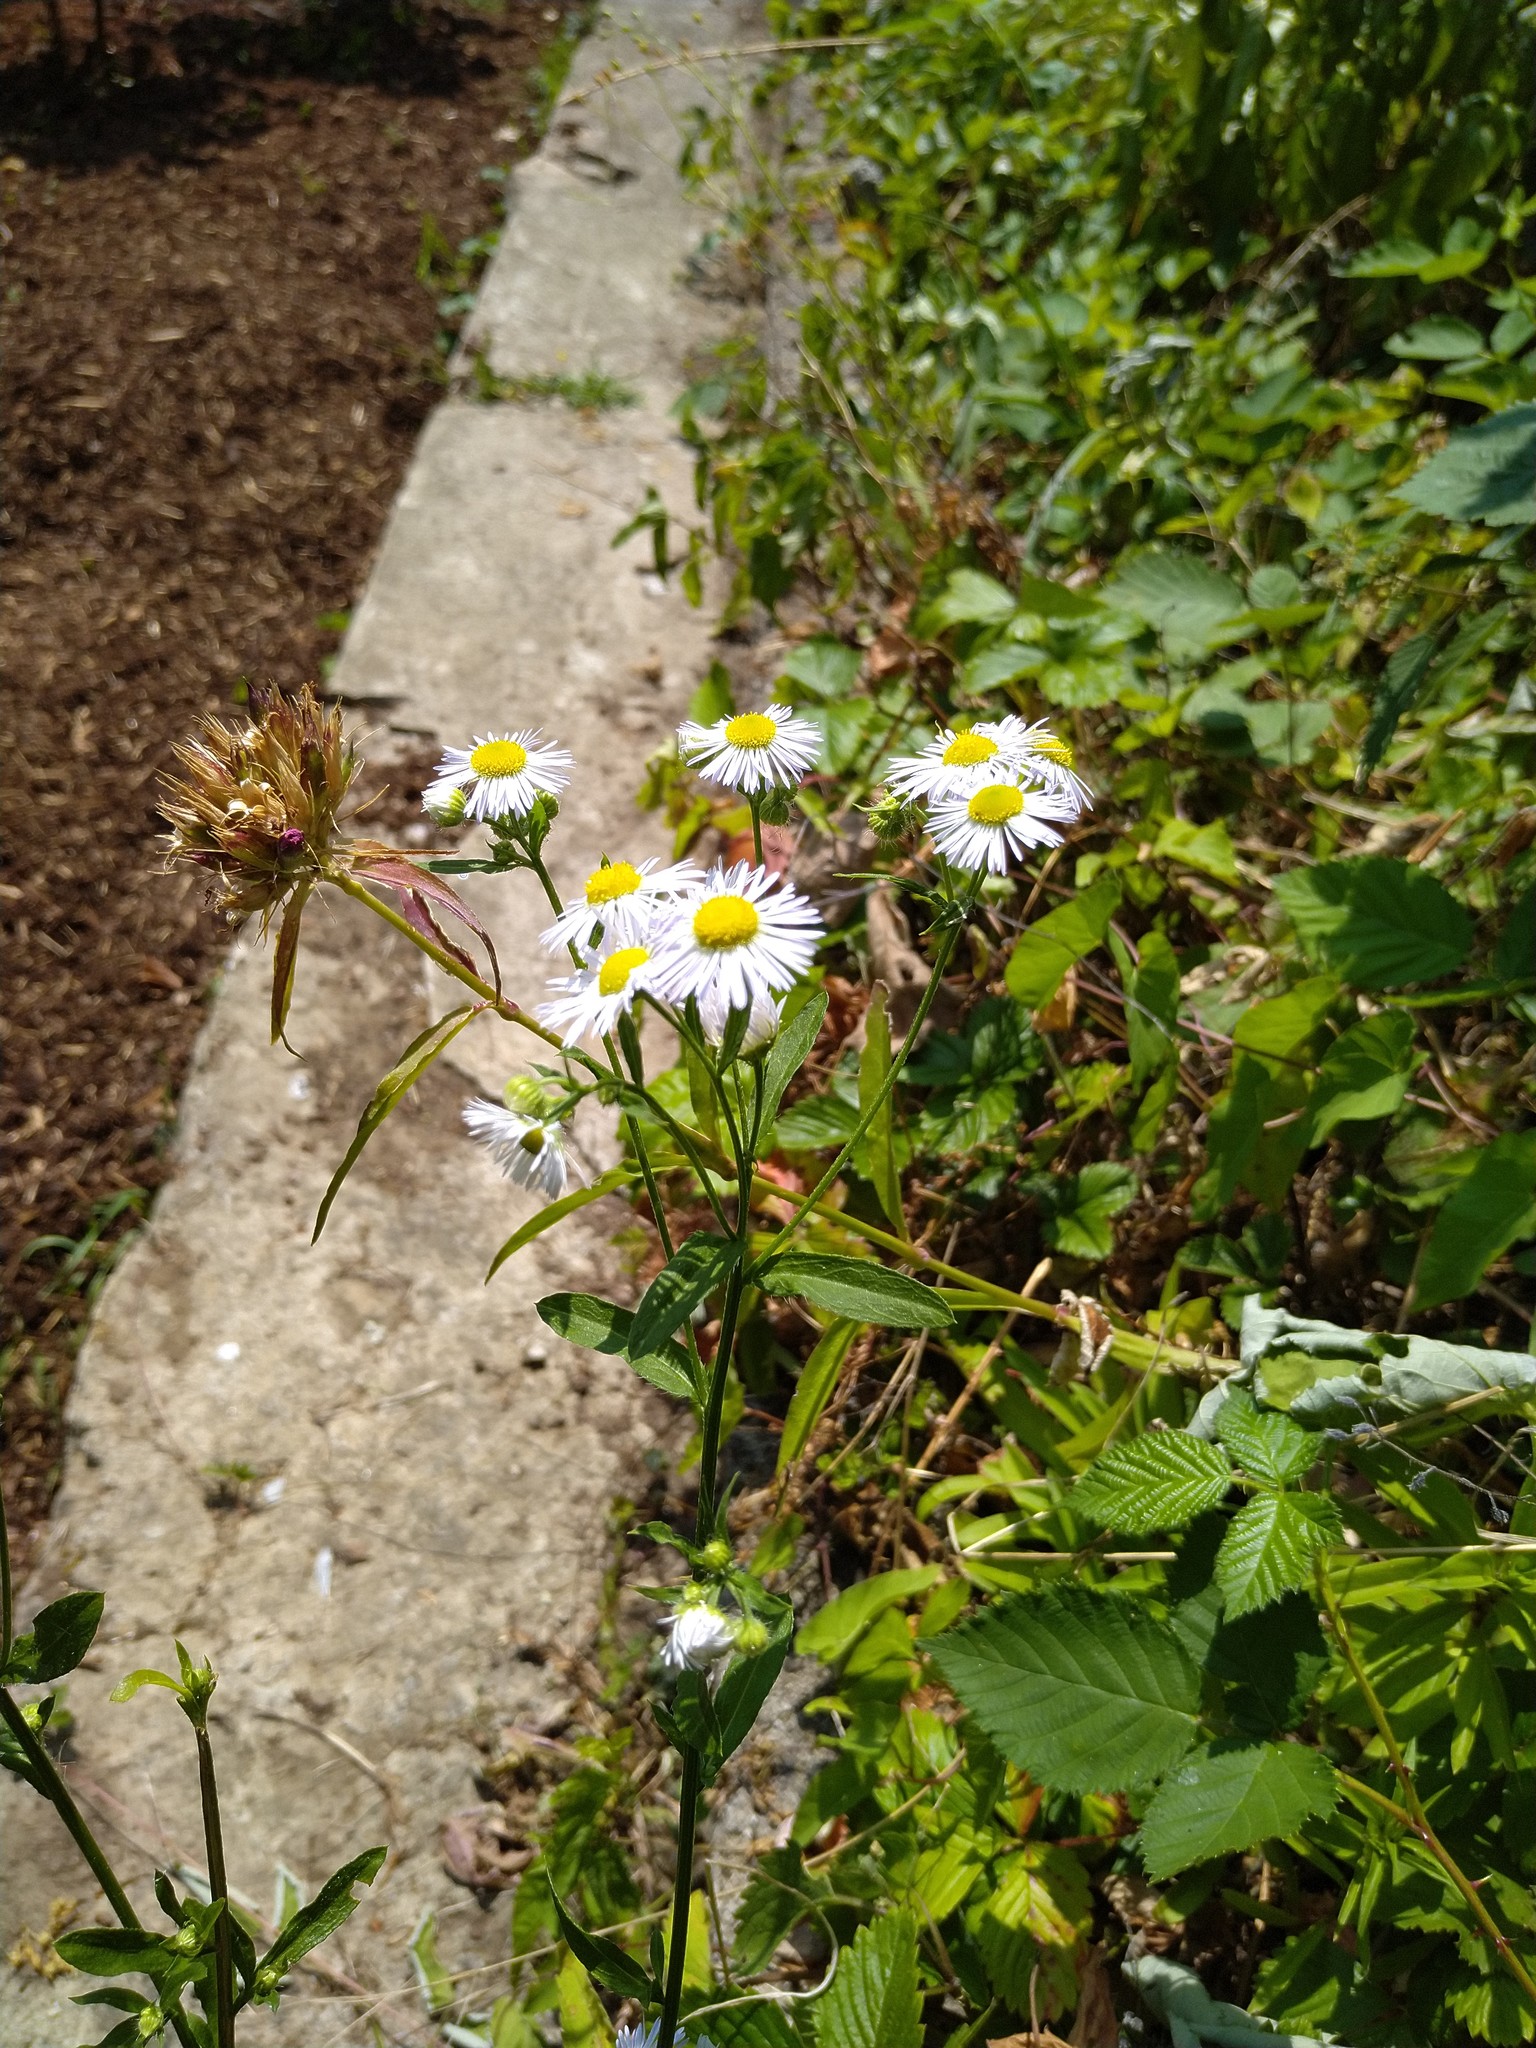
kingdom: Plantae
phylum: Tracheophyta
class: Magnoliopsida
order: Asterales
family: Asteraceae
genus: Erigeron
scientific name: Erigeron annuus
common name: Tall fleabane
